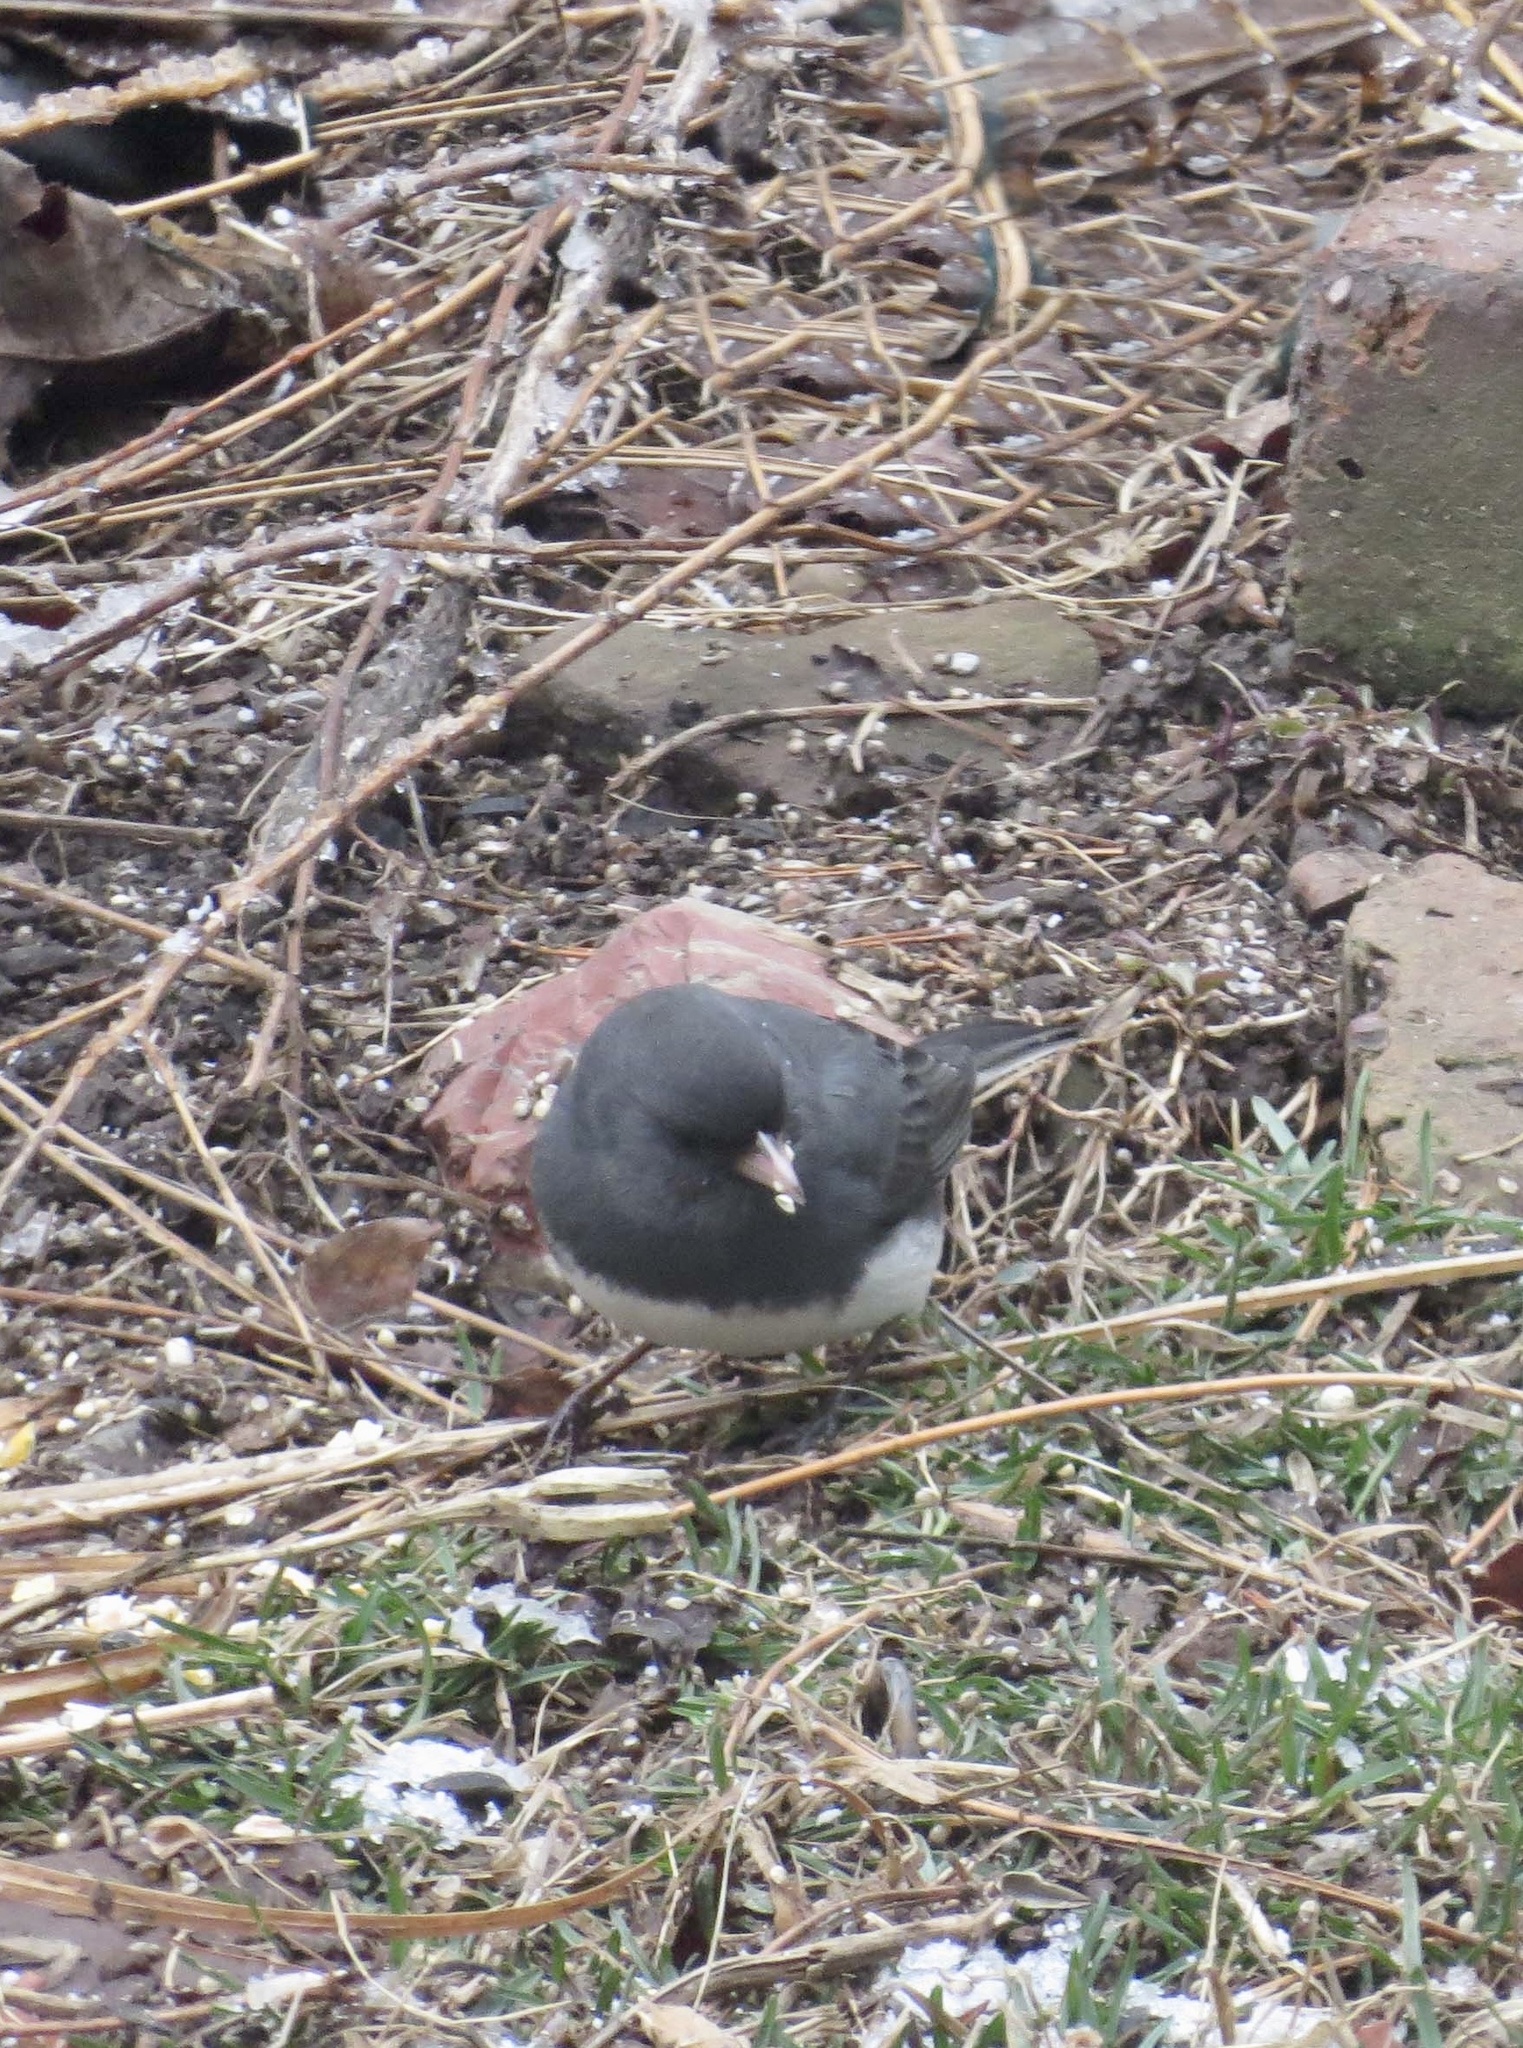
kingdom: Animalia
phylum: Chordata
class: Aves
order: Passeriformes
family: Passerellidae
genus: Junco
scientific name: Junco hyemalis
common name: Dark-eyed junco
